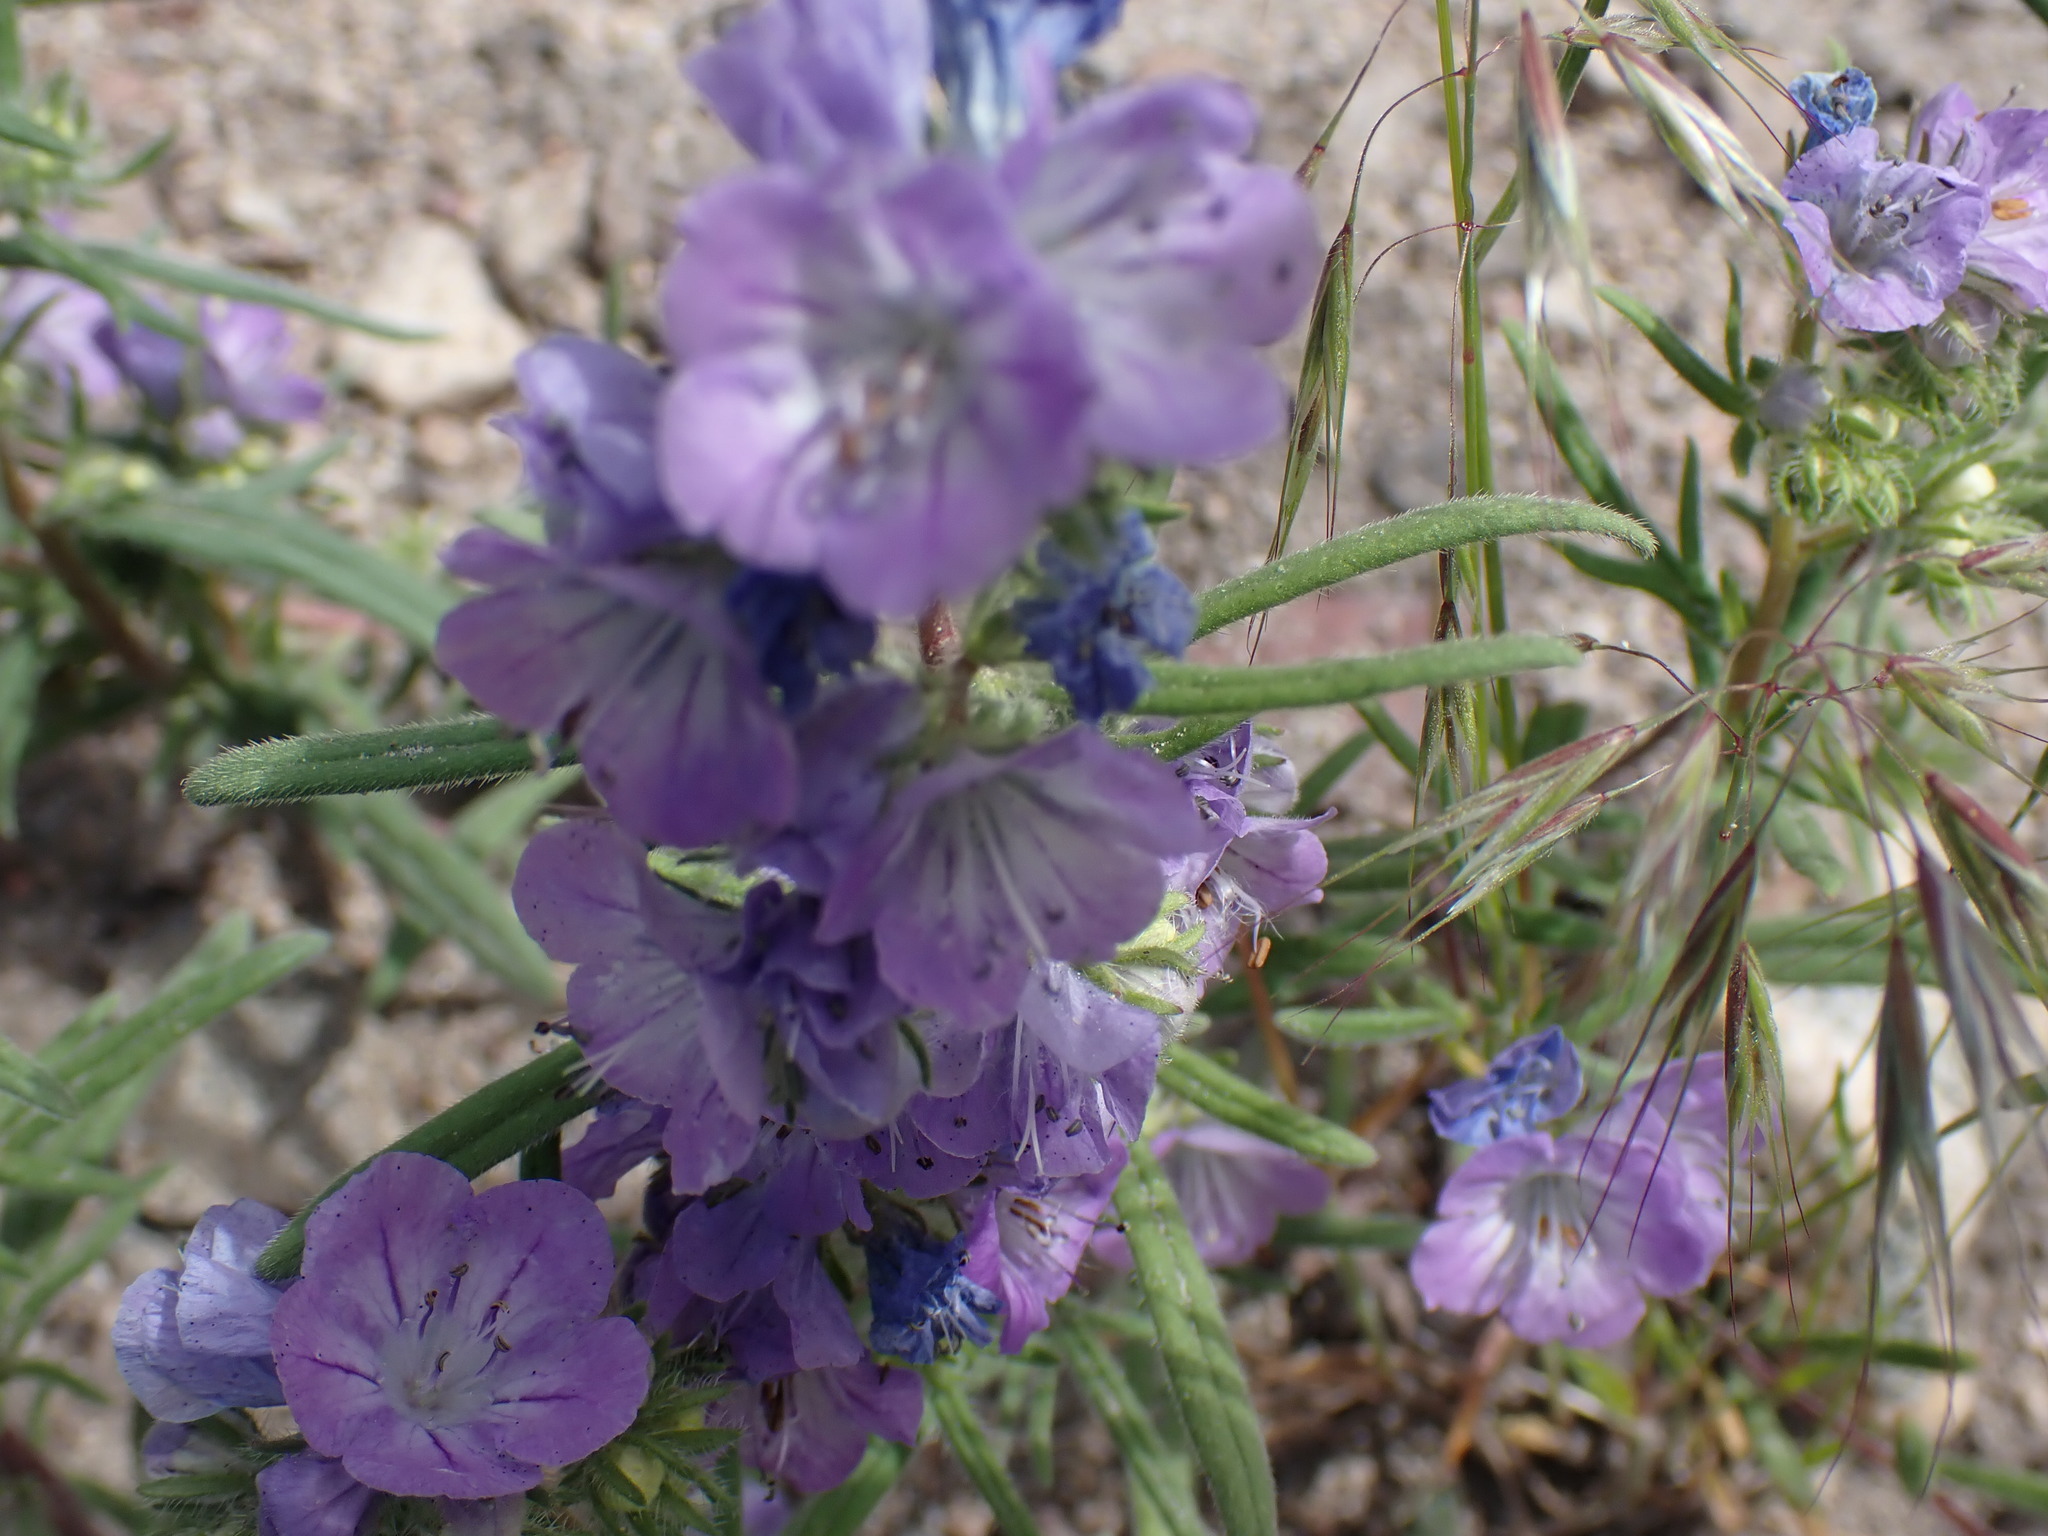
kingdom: Plantae
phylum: Tracheophyta
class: Magnoliopsida
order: Boraginales
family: Hydrophyllaceae
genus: Phacelia
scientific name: Phacelia linearis
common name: Linear-leaved phacelia
